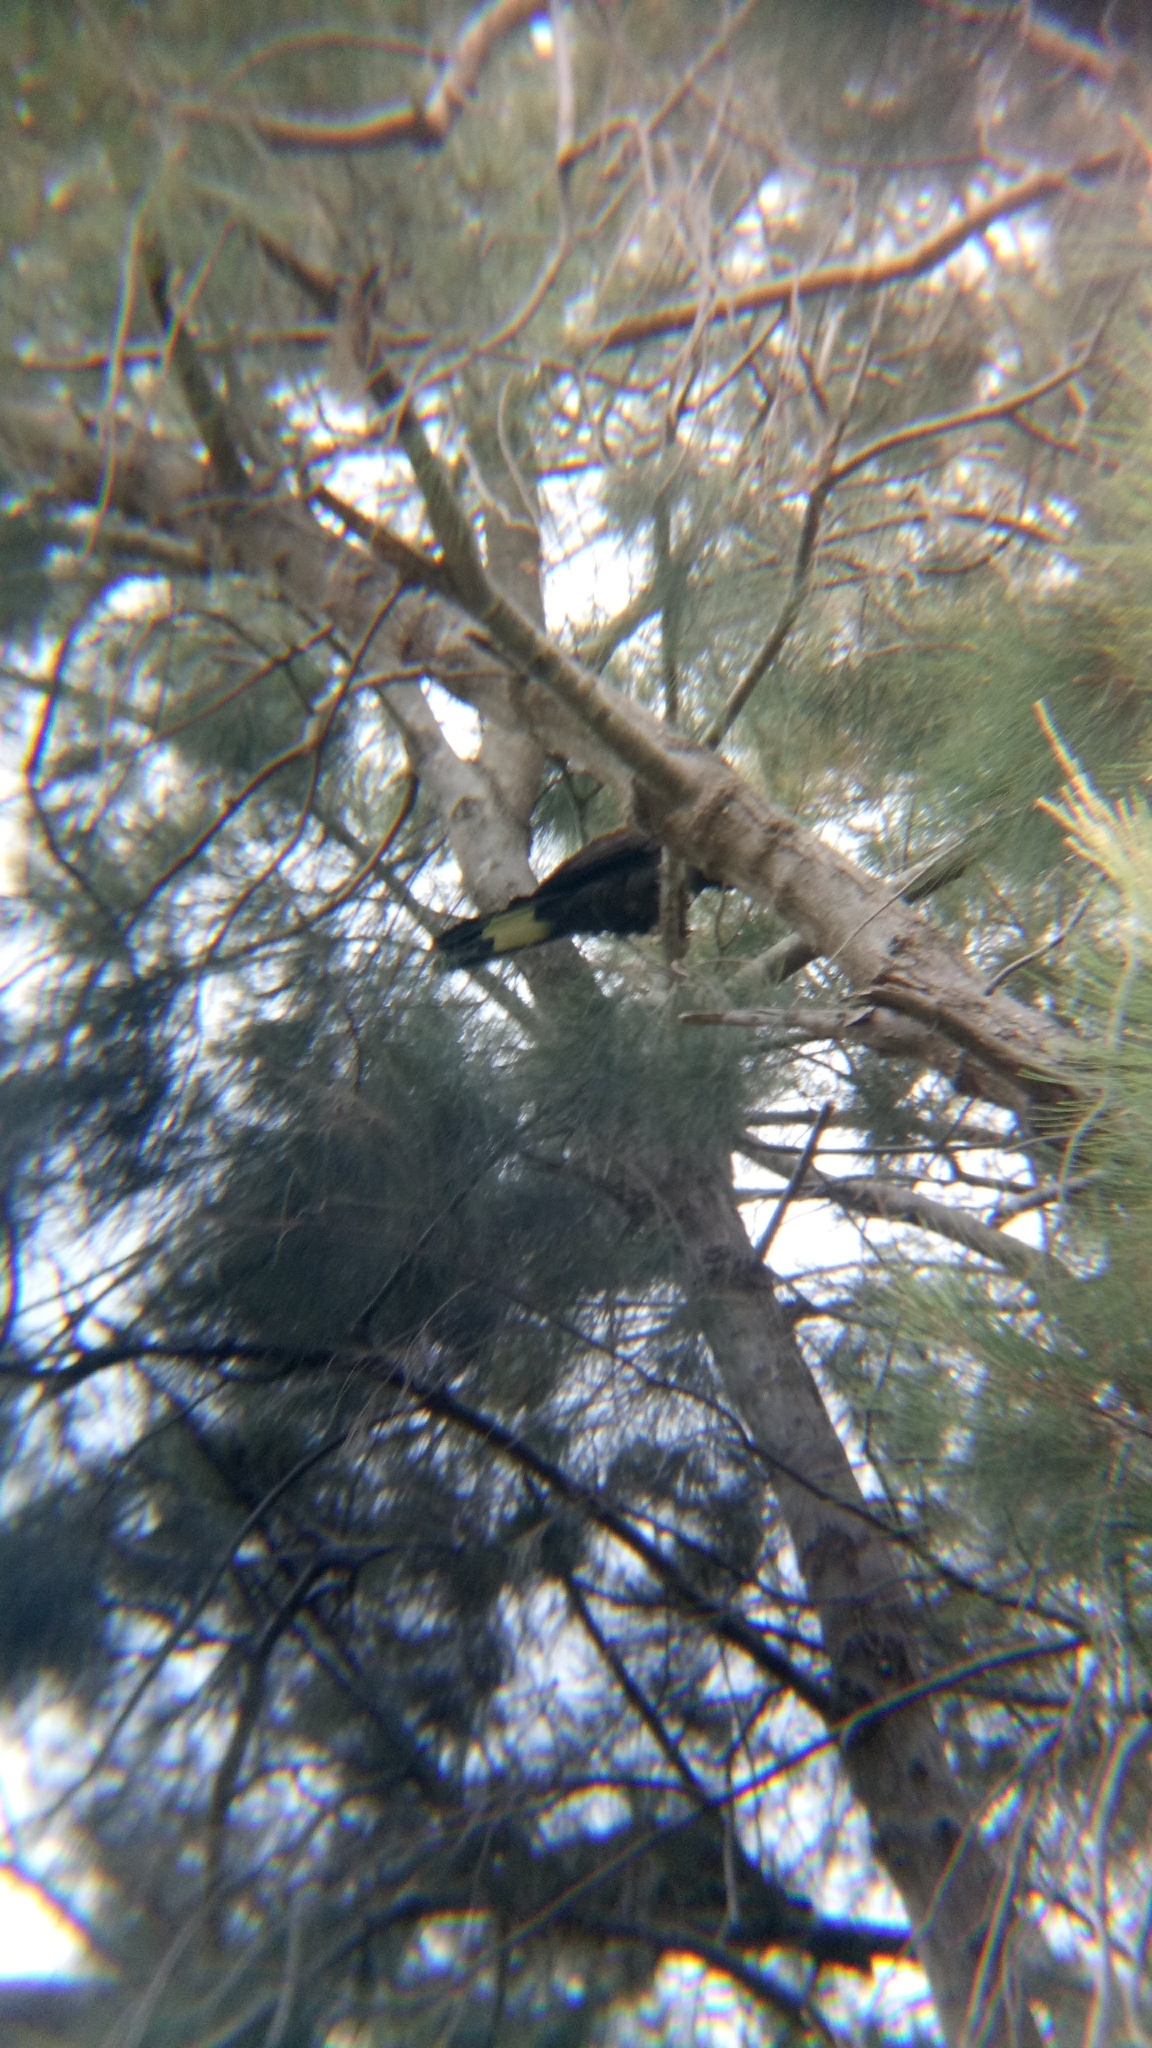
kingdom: Animalia
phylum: Chordata
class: Aves
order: Psittaciformes
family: Cacatuidae
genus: Zanda
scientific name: Zanda funerea
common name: Yellow-tailed black-cockatoo
